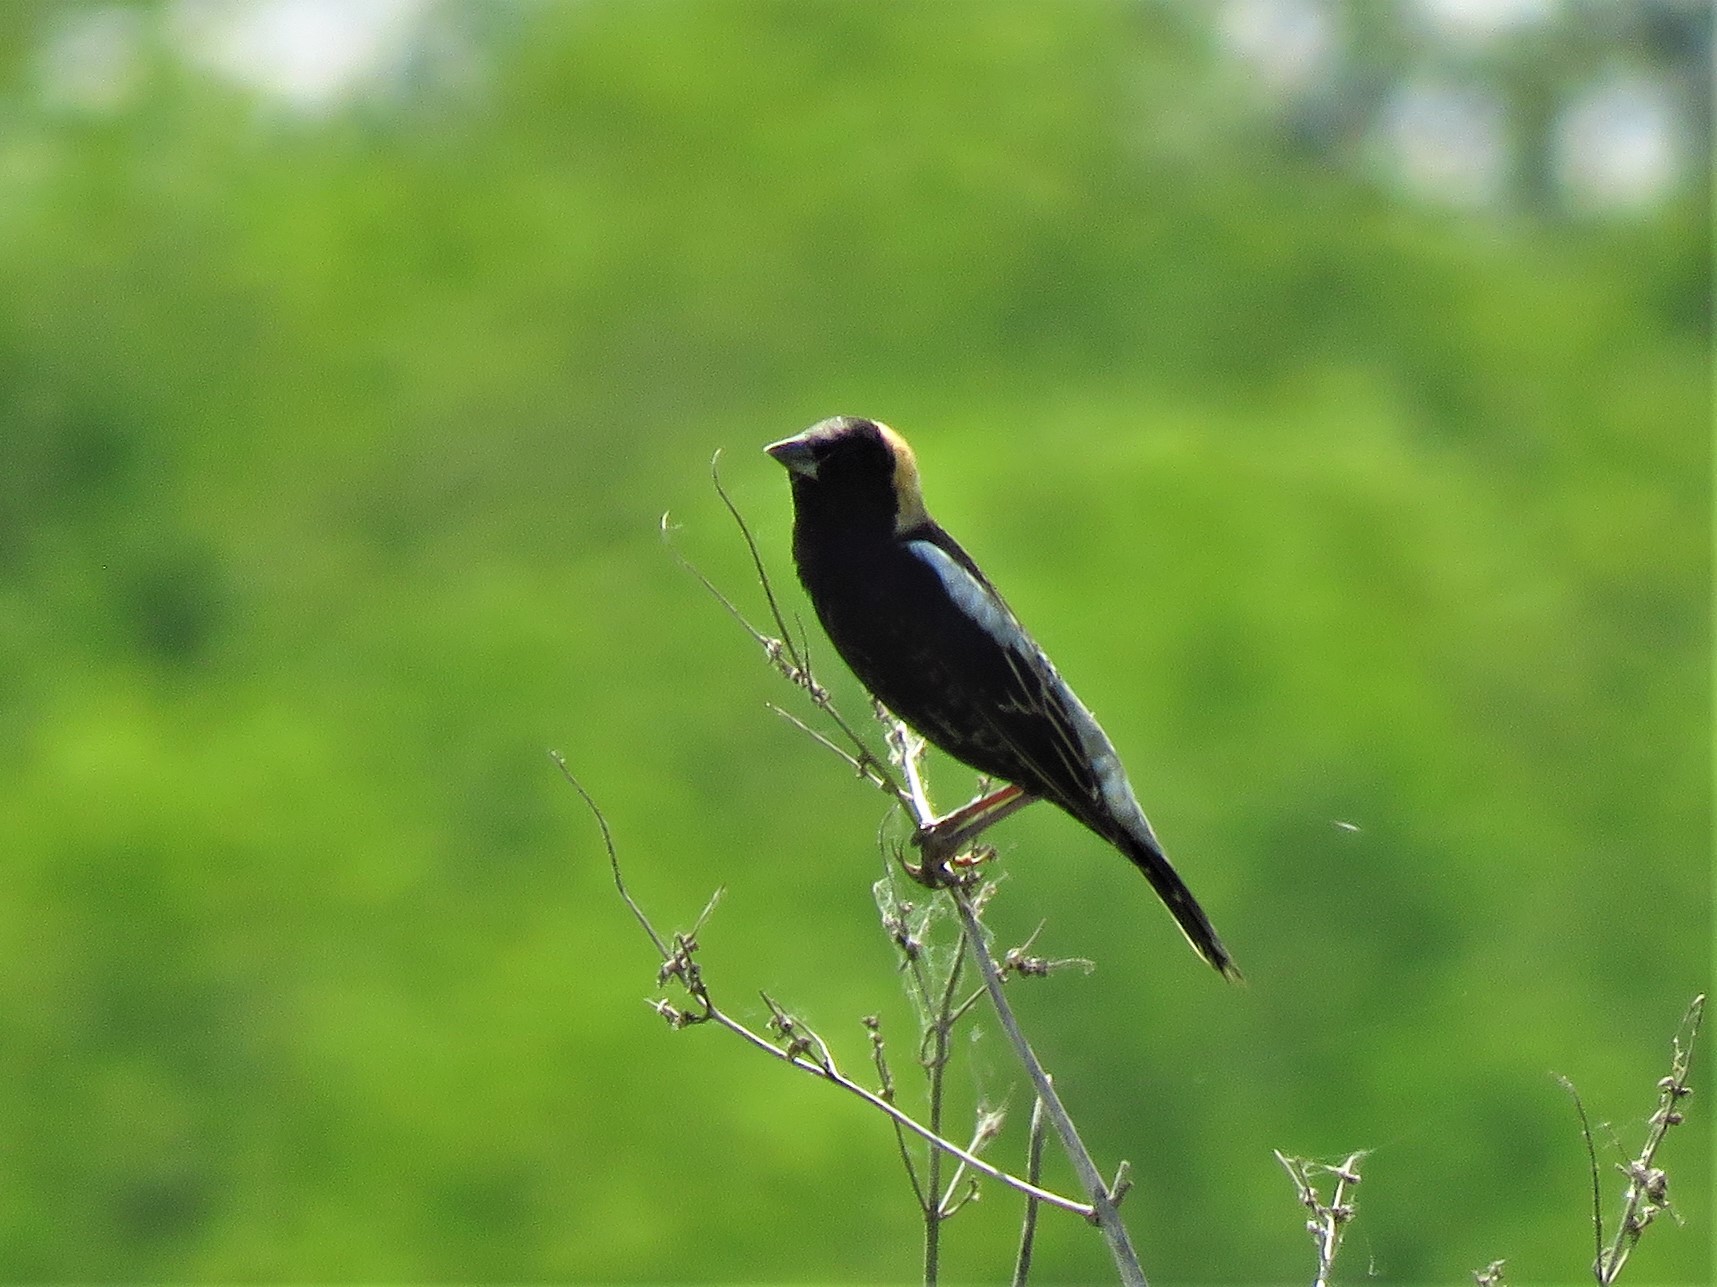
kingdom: Animalia
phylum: Chordata
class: Aves
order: Passeriformes
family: Icteridae
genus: Dolichonyx
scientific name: Dolichonyx oryzivorus
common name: Bobolink
